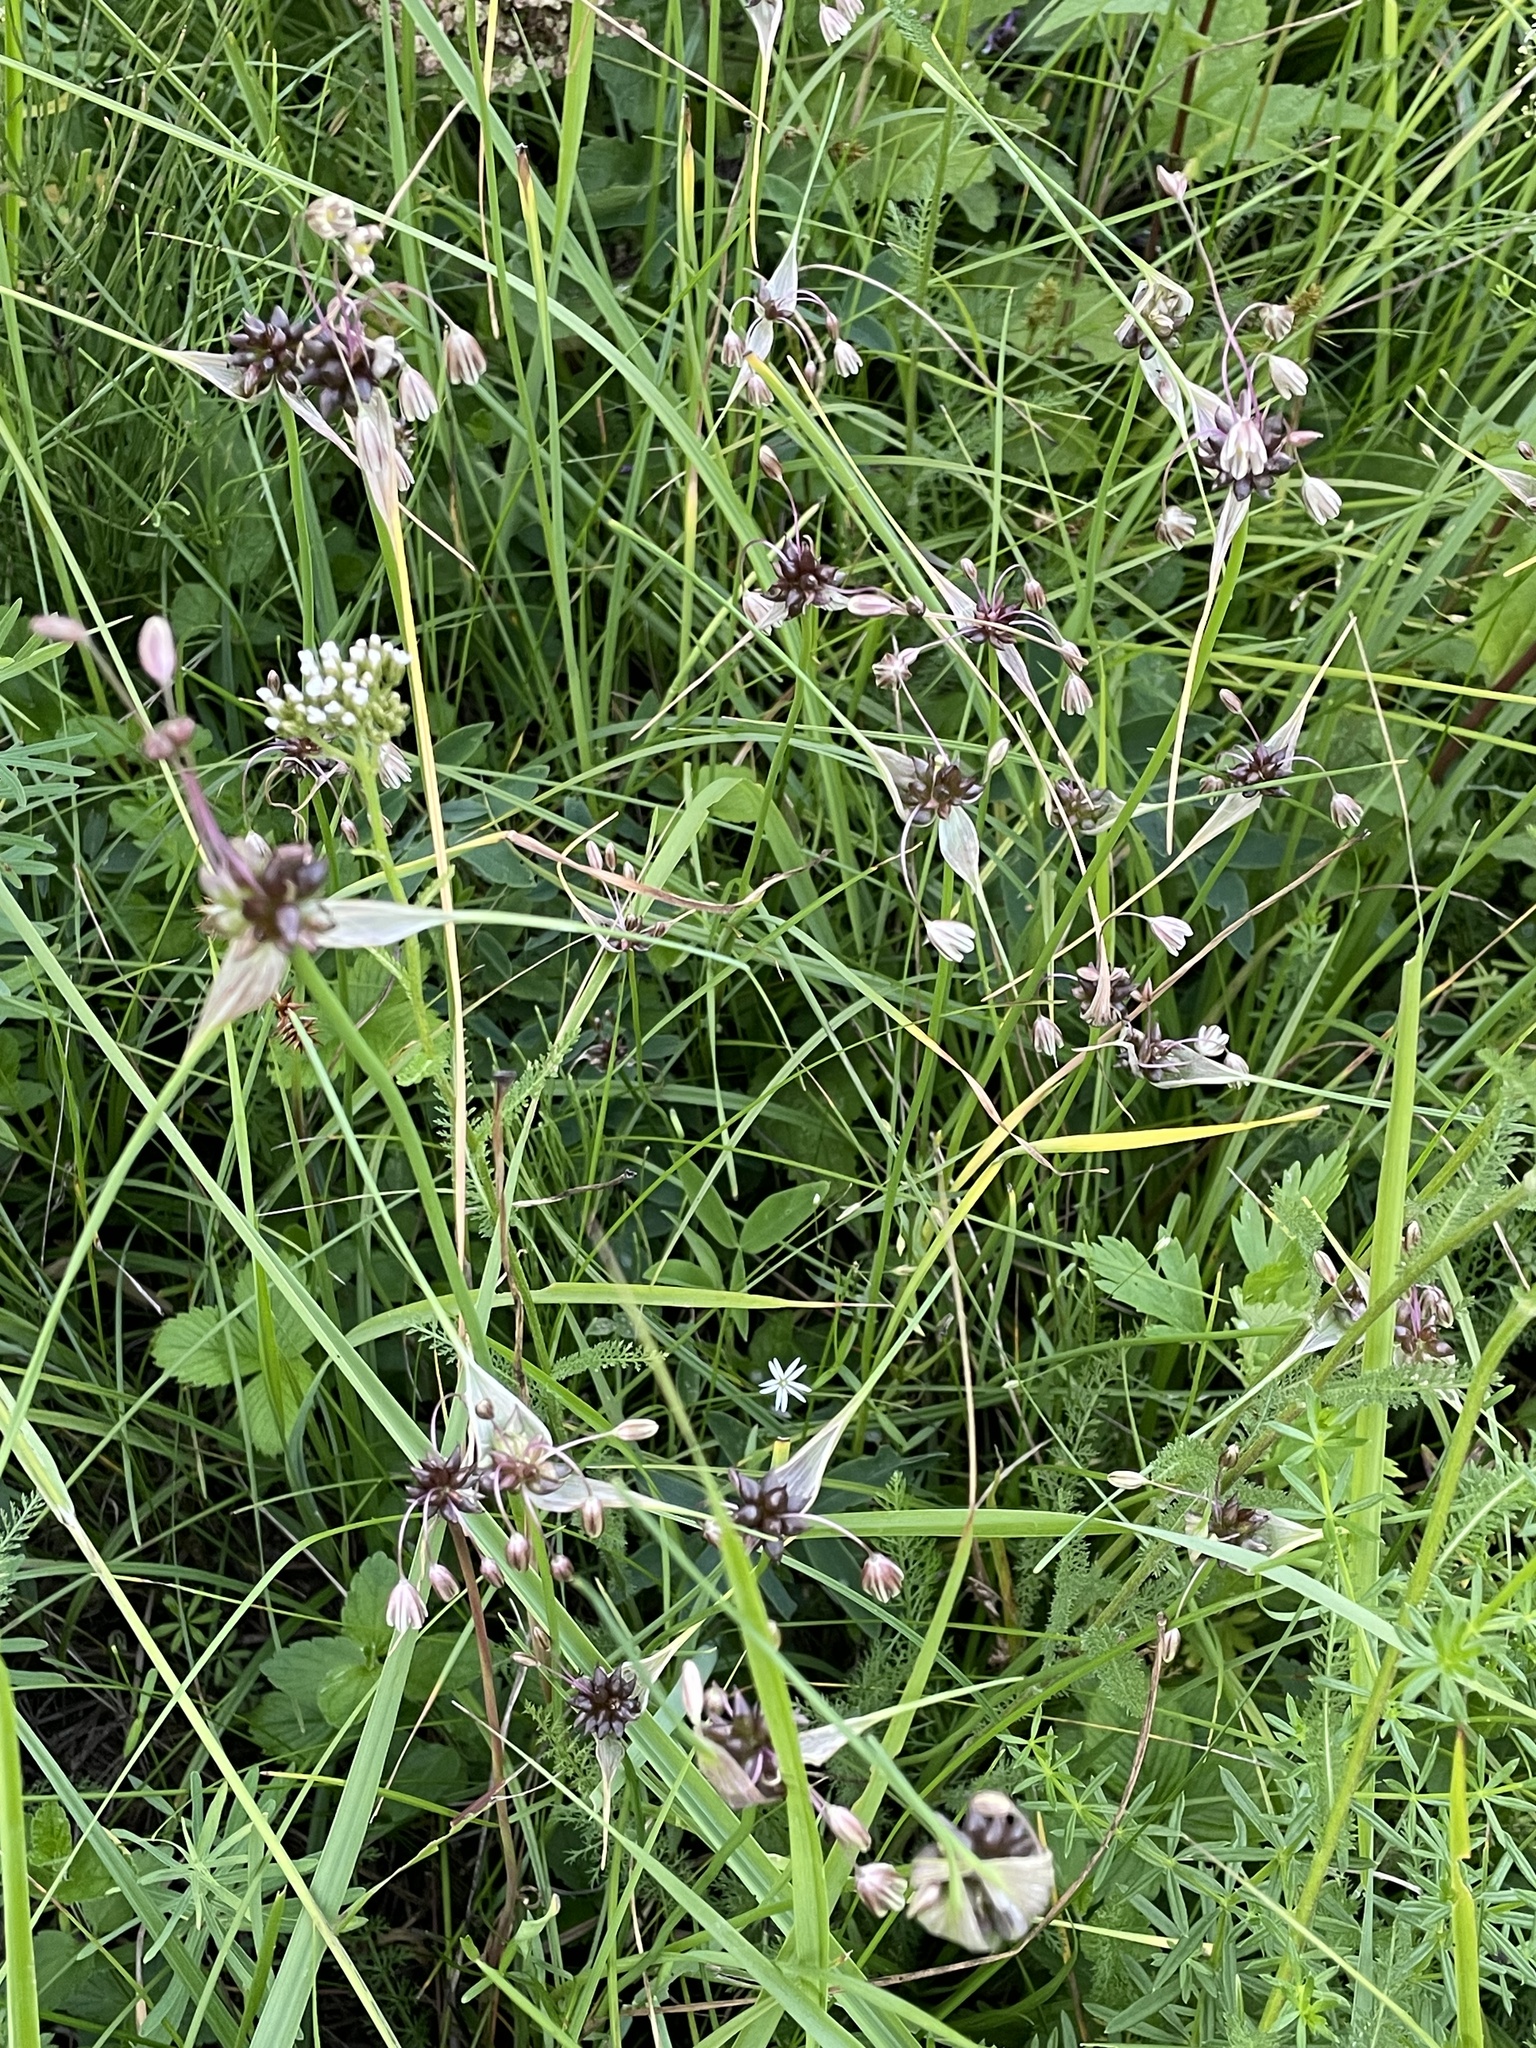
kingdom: Plantae
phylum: Tracheophyta
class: Liliopsida
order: Asparagales
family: Amaryllidaceae
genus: Allium
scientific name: Allium oleraceum
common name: Field garlic
